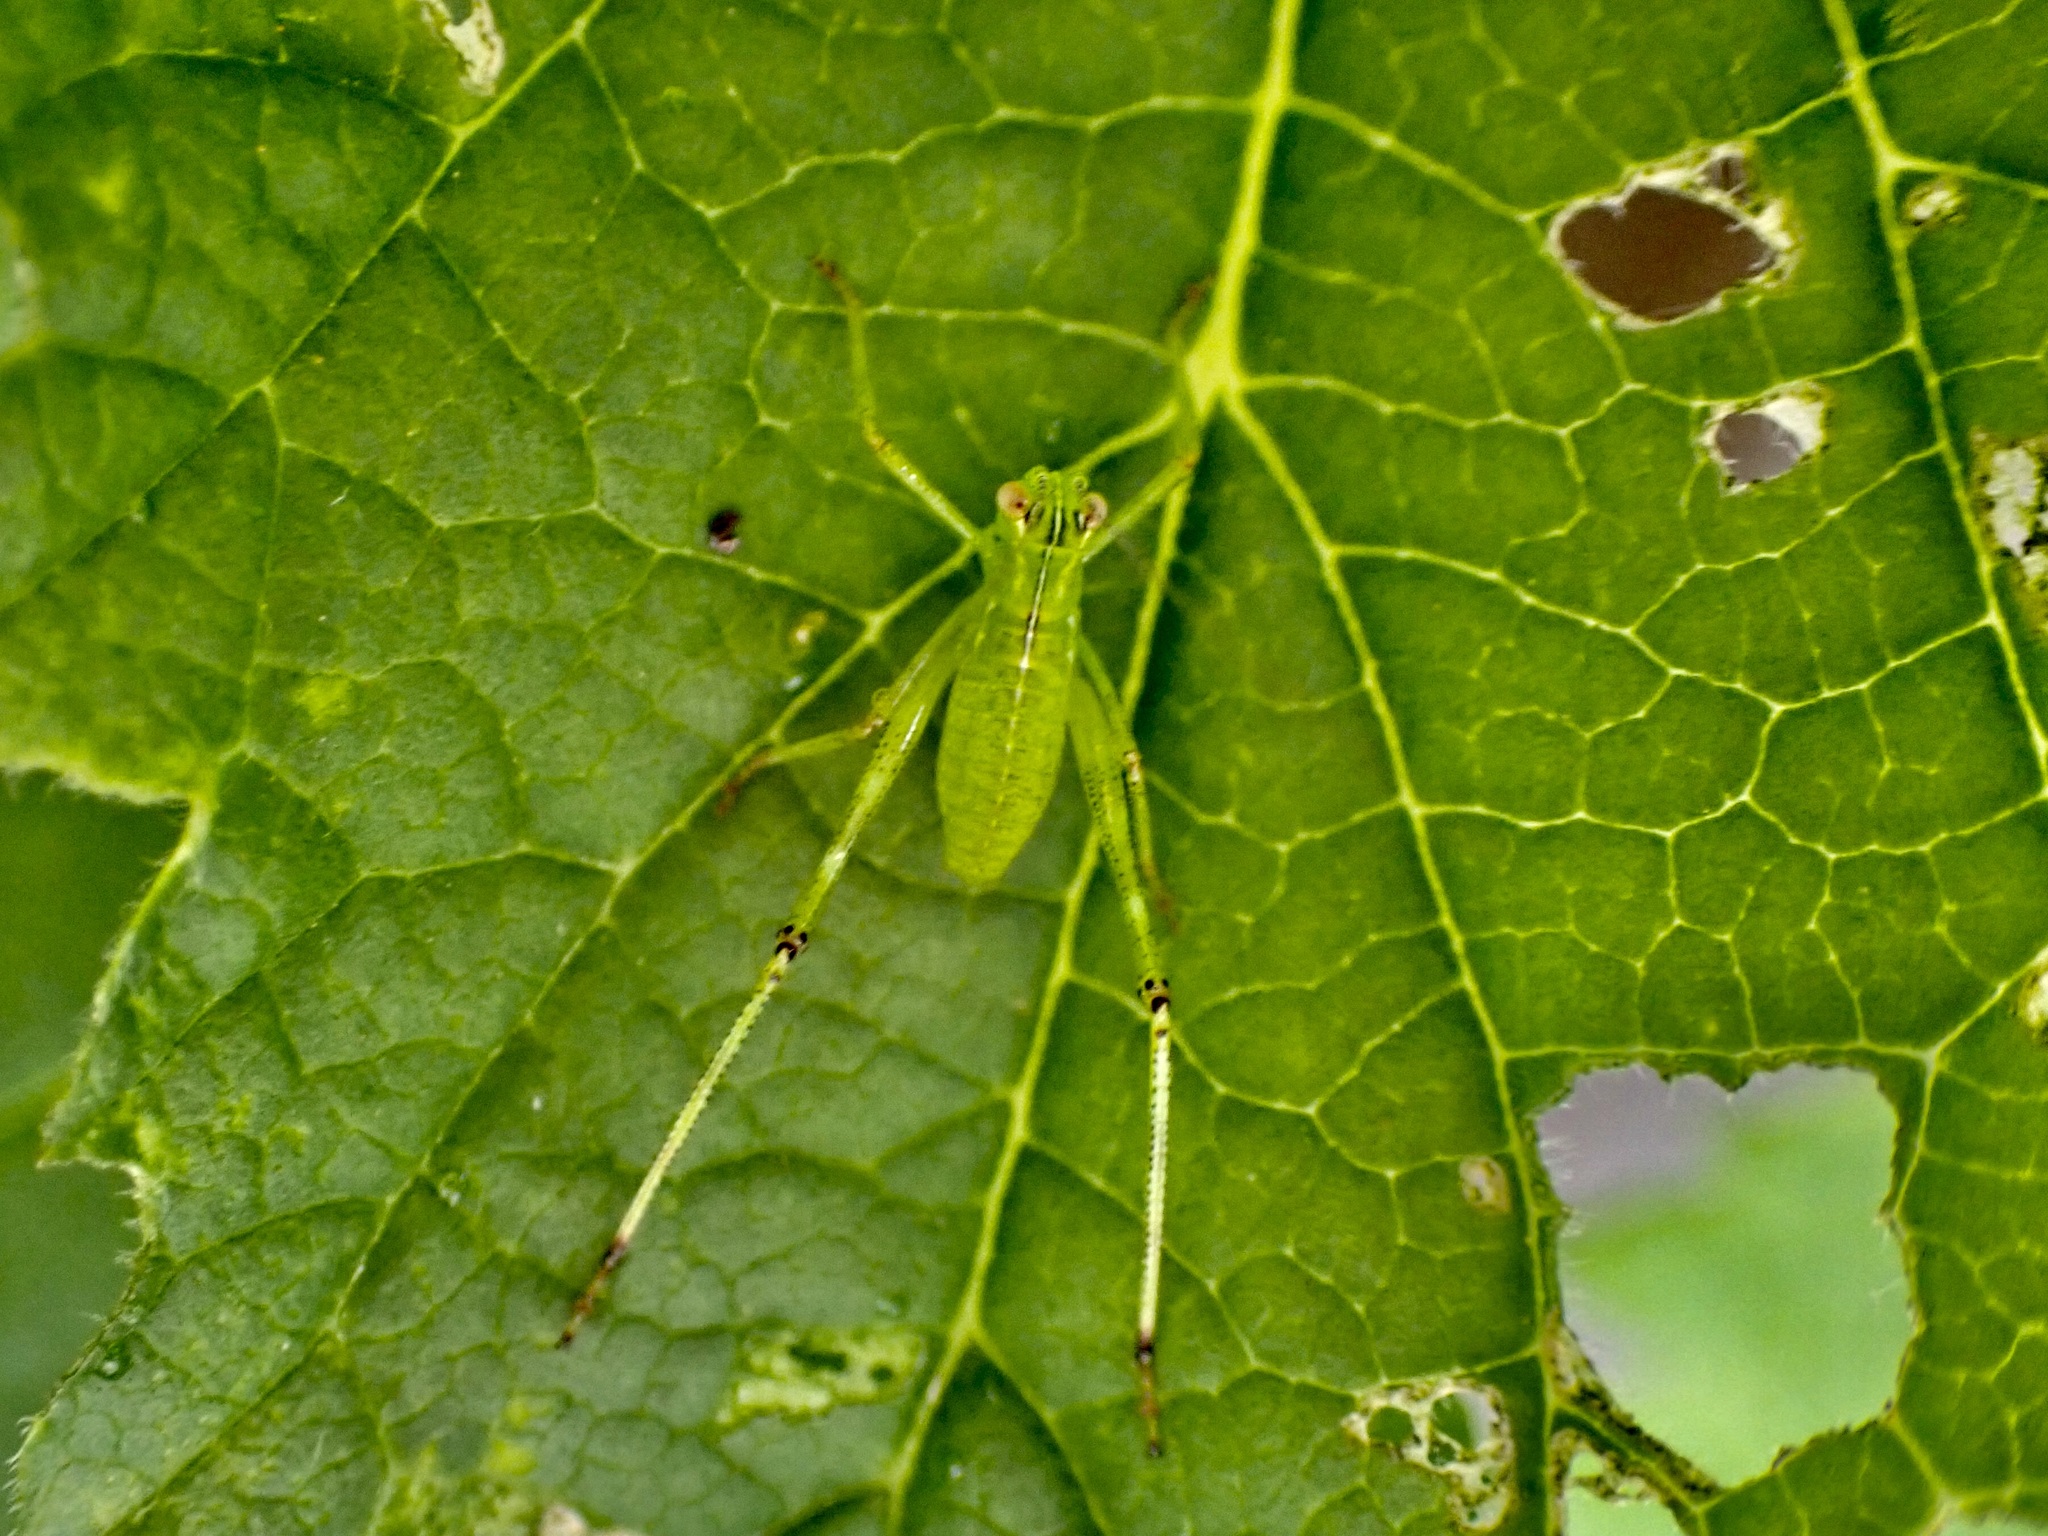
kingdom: Animalia
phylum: Arthropoda
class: Insecta
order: Orthoptera
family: Tettigoniidae
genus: Caedicia
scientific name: Caedicia simplex
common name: Common garden katydid
